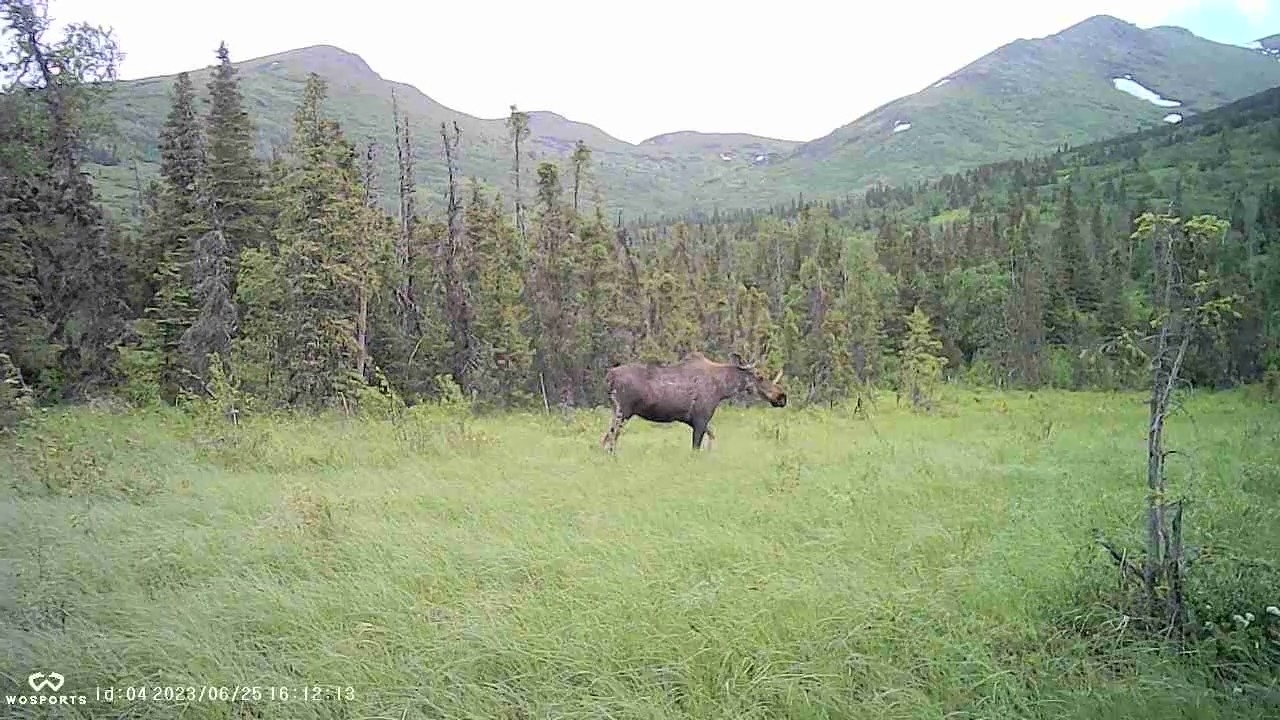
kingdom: Animalia
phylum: Chordata
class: Mammalia
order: Artiodactyla
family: Cervidae
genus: Alces
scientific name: Alces alces
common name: Moose
